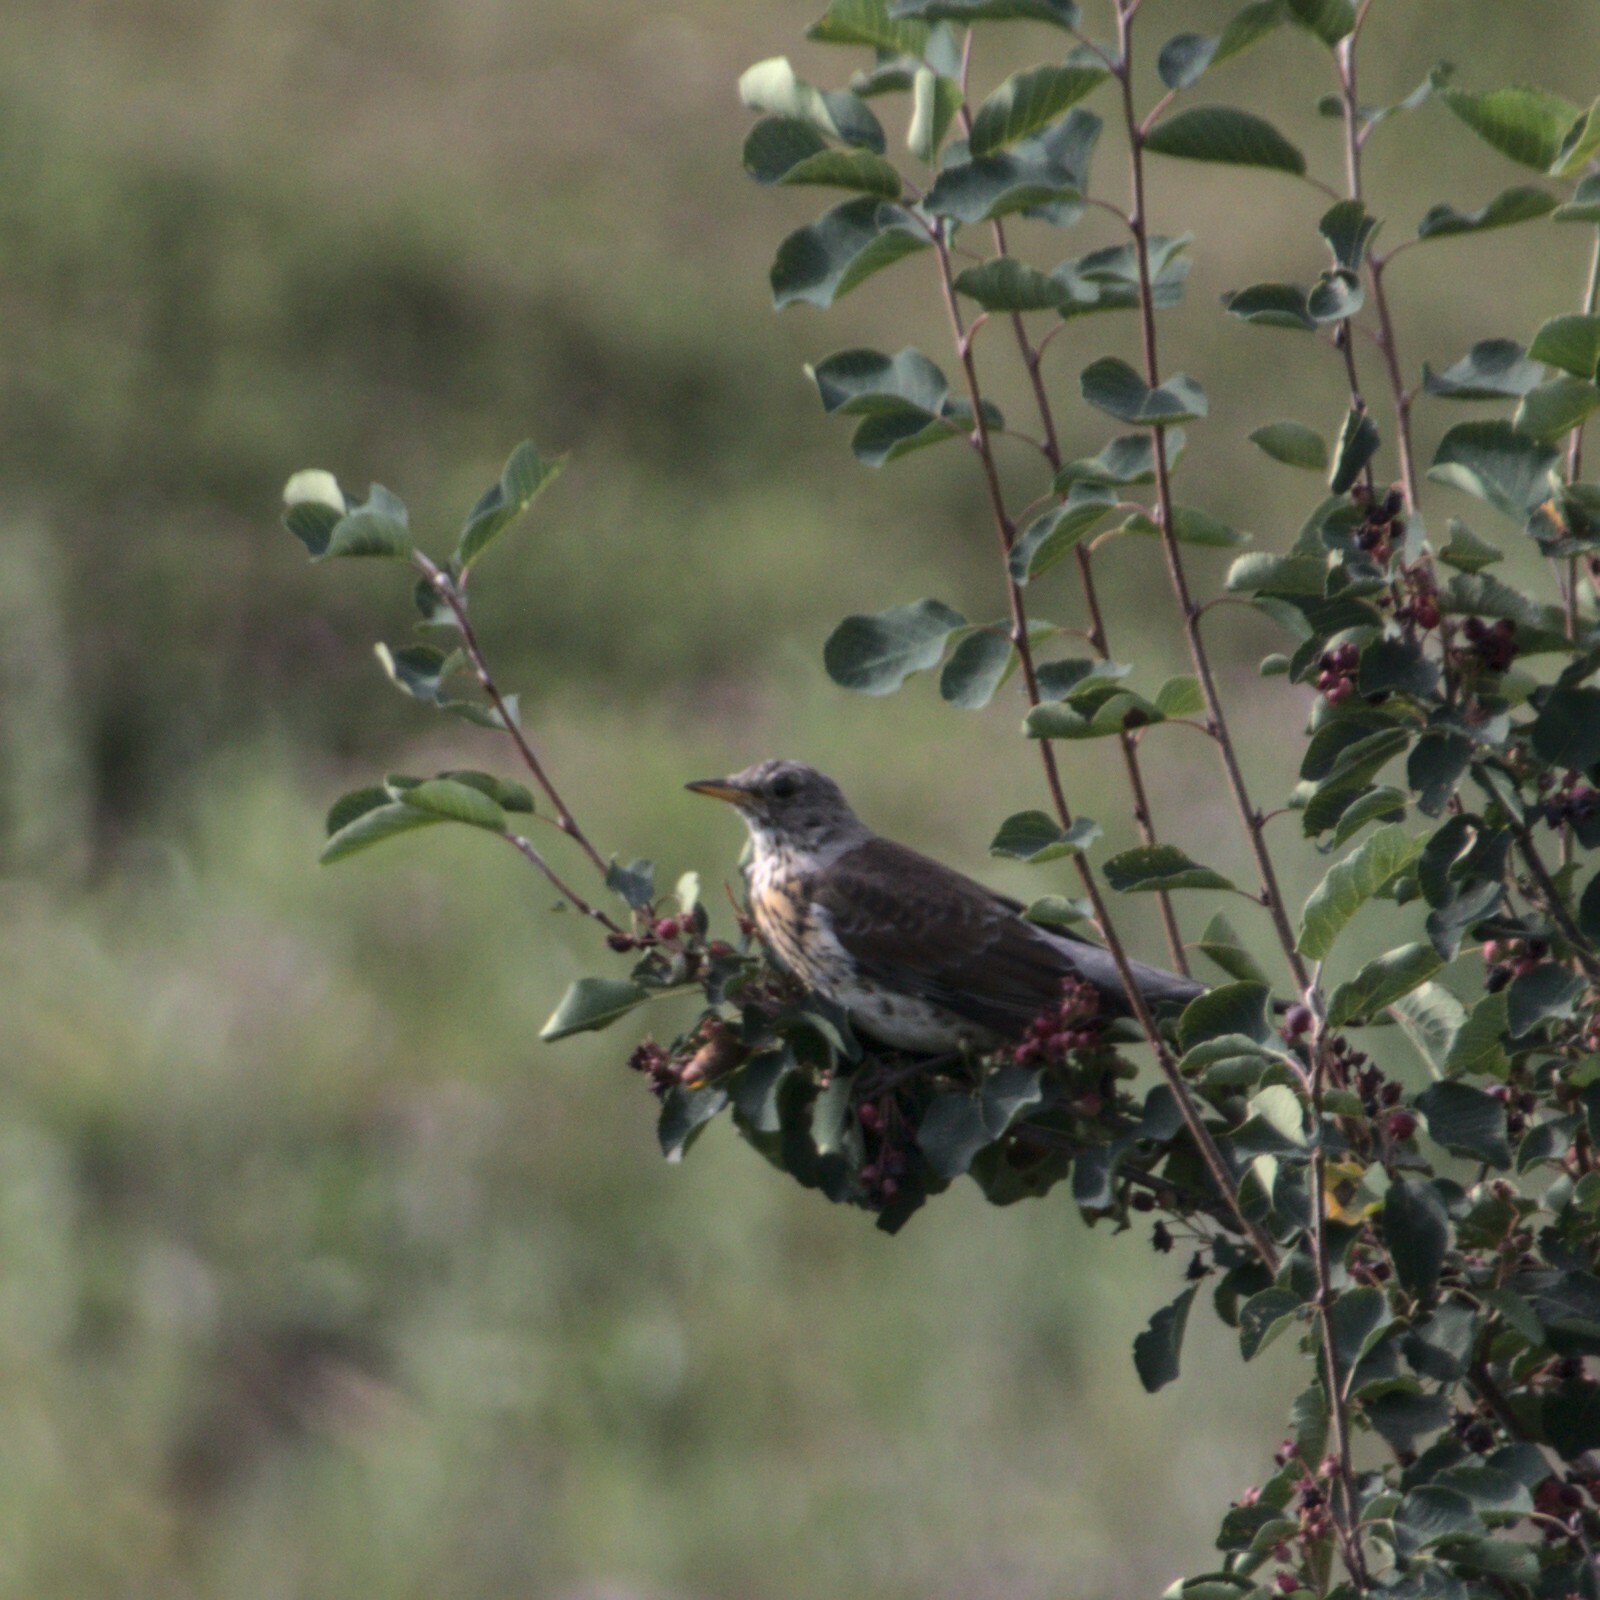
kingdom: Animalia
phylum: Chordata
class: Aves
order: Passeriformes
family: Turdidae
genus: Turdus
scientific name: Turdus pilaris
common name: Fieldfare
